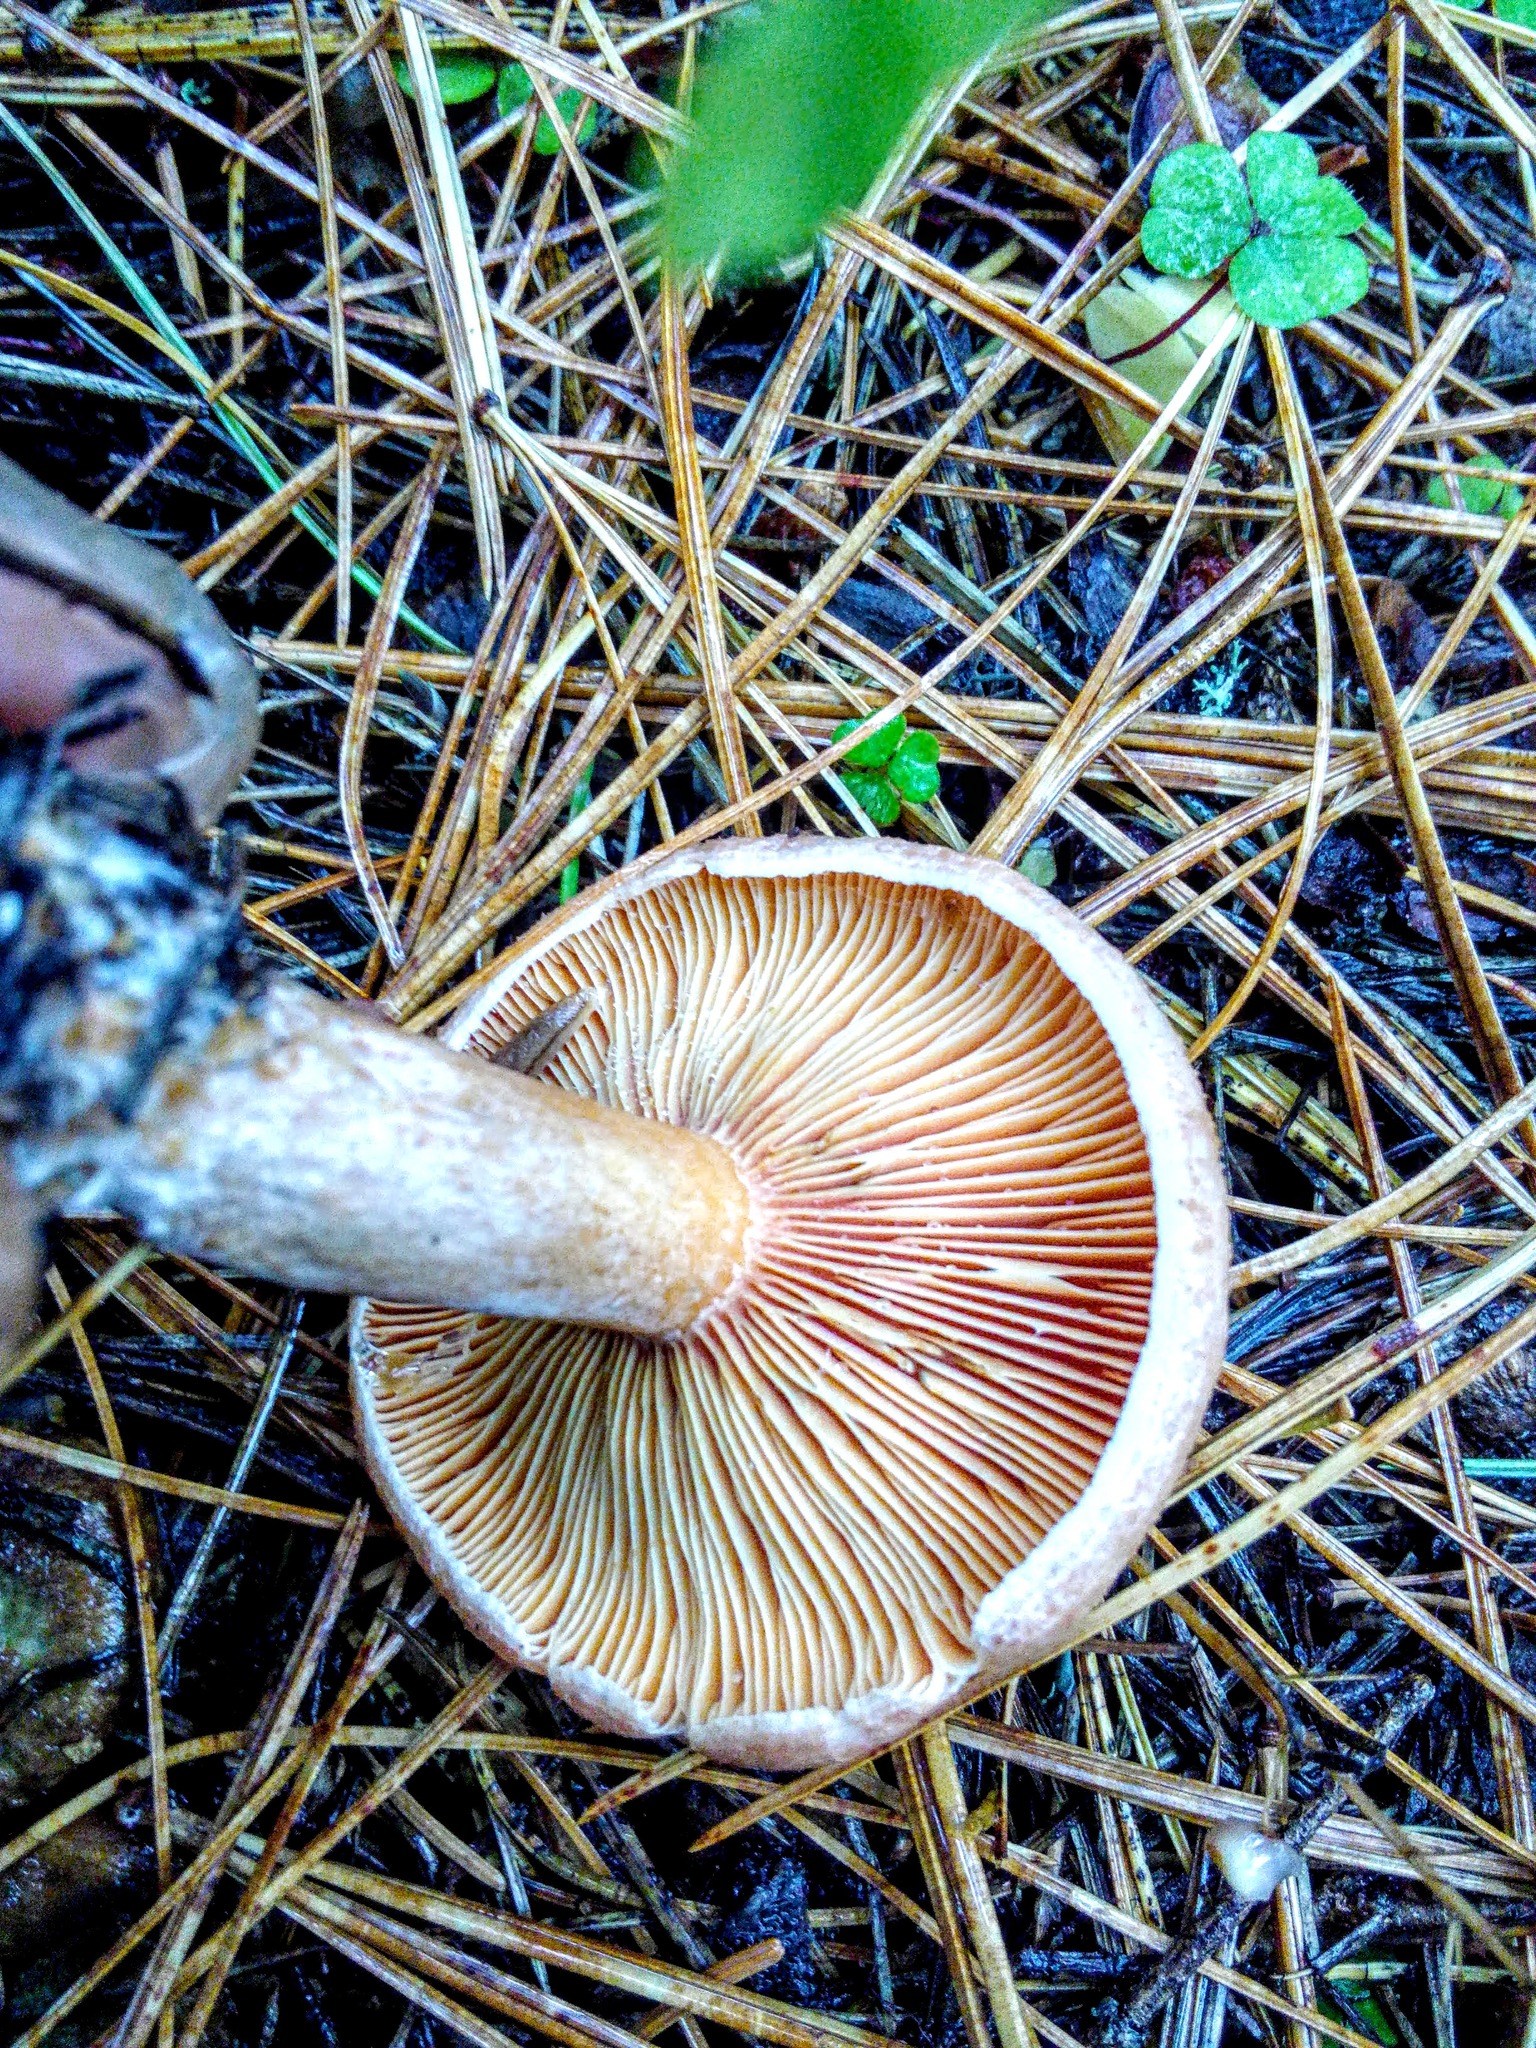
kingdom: Fungi
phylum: Basidiomycota
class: Agaricomycetes
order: Russulales
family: Russulaceae
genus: Lactarius
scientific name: Lactarius deterrimus
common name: False saffron milkcap
